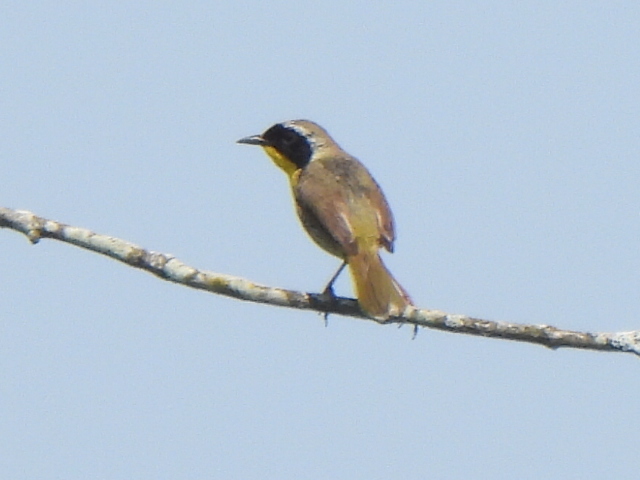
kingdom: Animalia
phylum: Chordata
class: Aves
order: Passeriformes
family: Parulidae
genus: Geothlypis
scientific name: Geothlypis trichas
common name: Common yellowthroat
